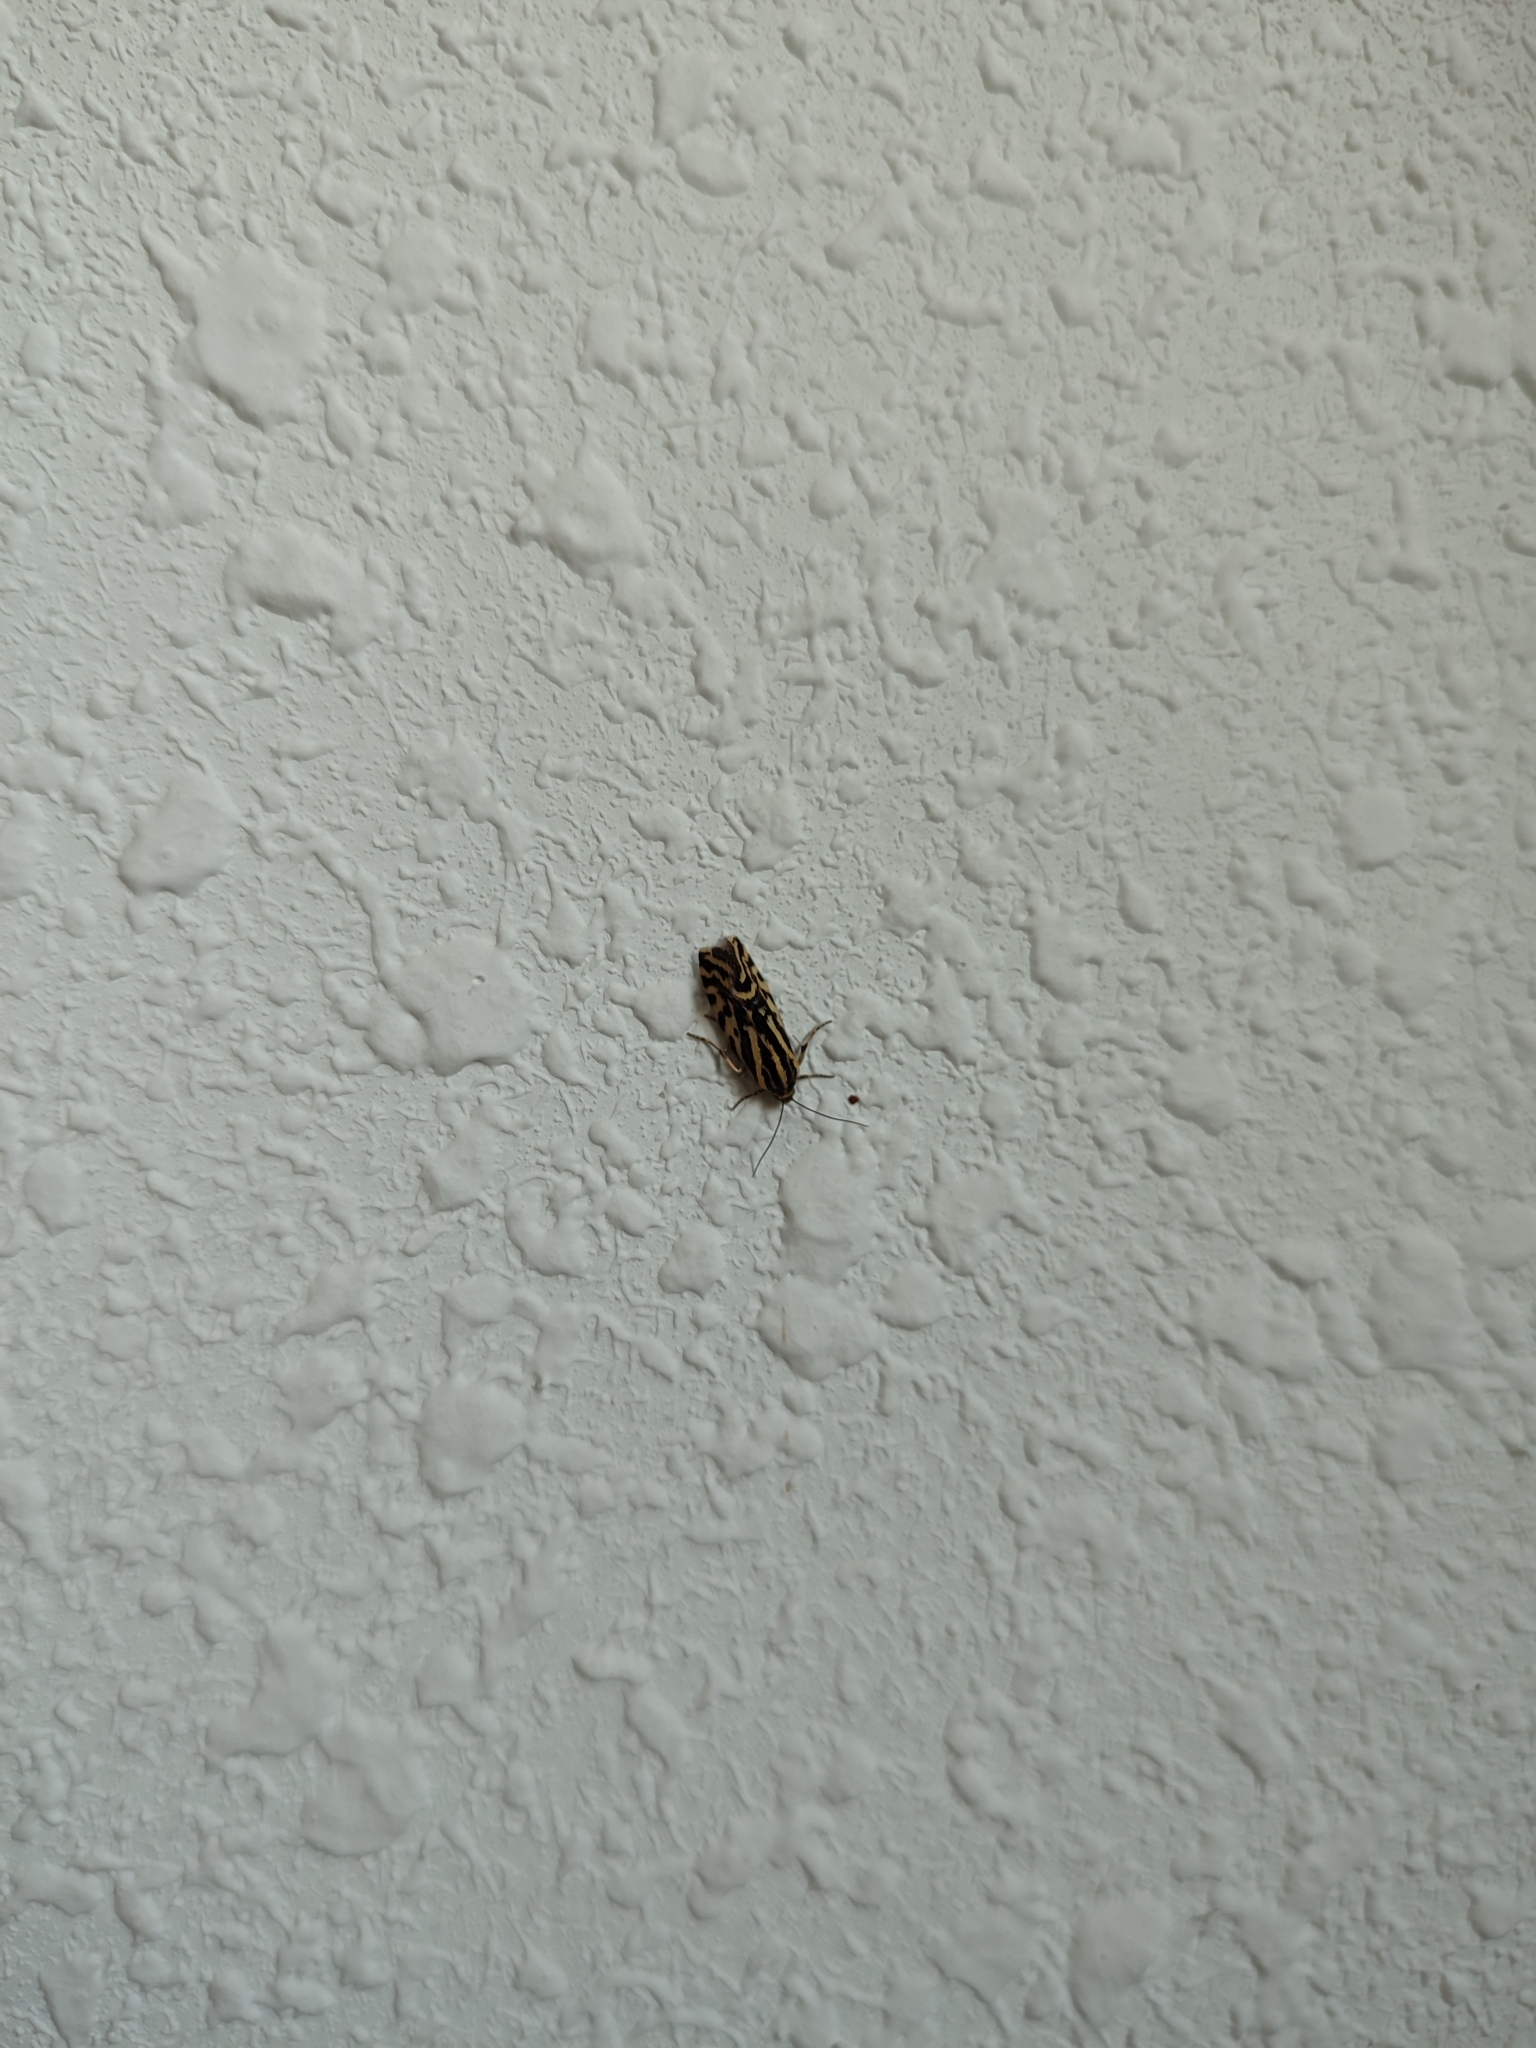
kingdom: Animalia
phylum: Arthropoda
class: Insecta
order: Lepidoptera
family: Noctuidae
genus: Acontia
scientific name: Acontia trabealis
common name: Spotted sulphur
